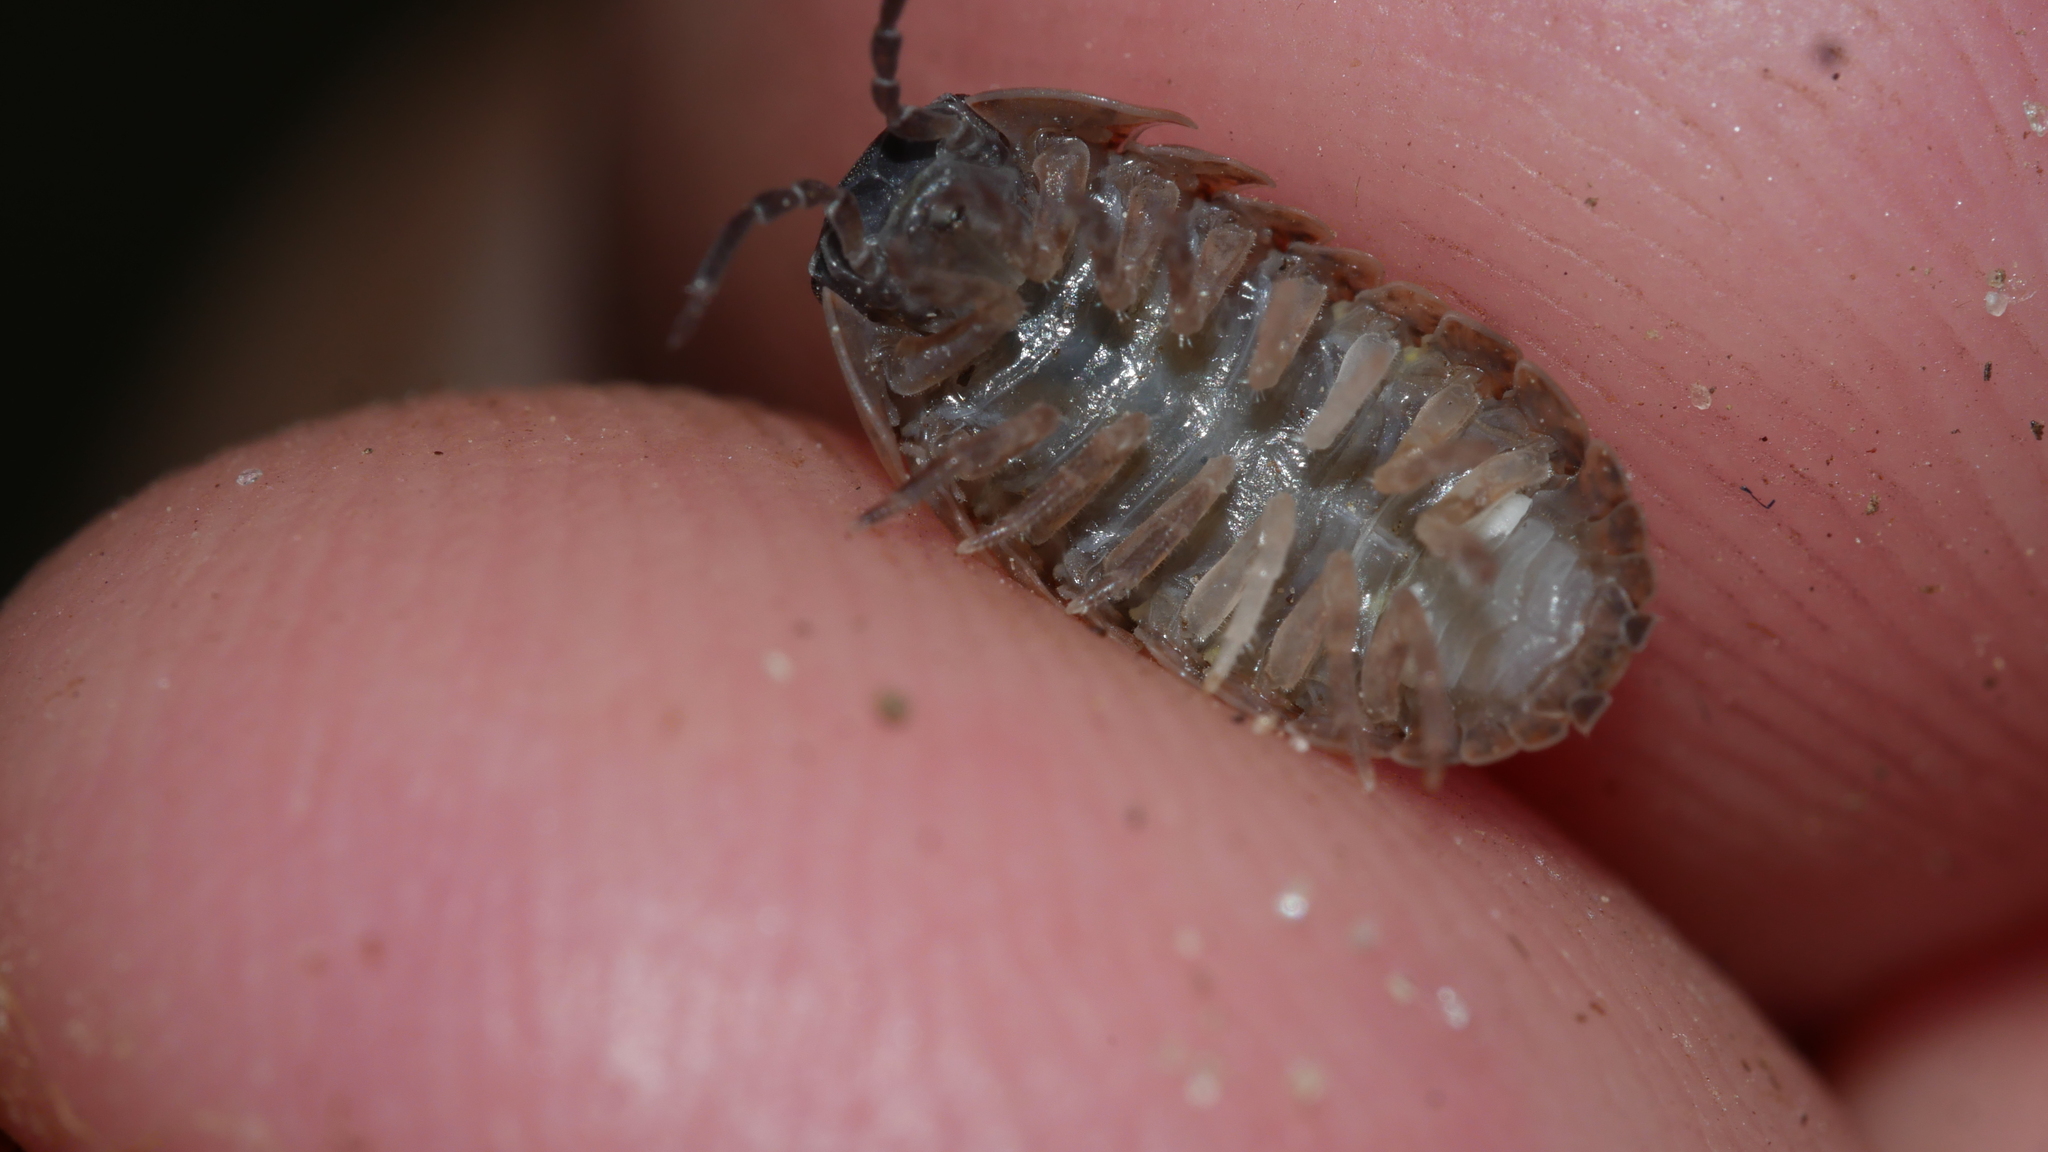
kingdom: Animalia
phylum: Arthropoda
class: Malacostraca
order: Isopoda
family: Armadillidiidae
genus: Armadillidium
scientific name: Armadillidium vulgare
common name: Common pill woodlouse
